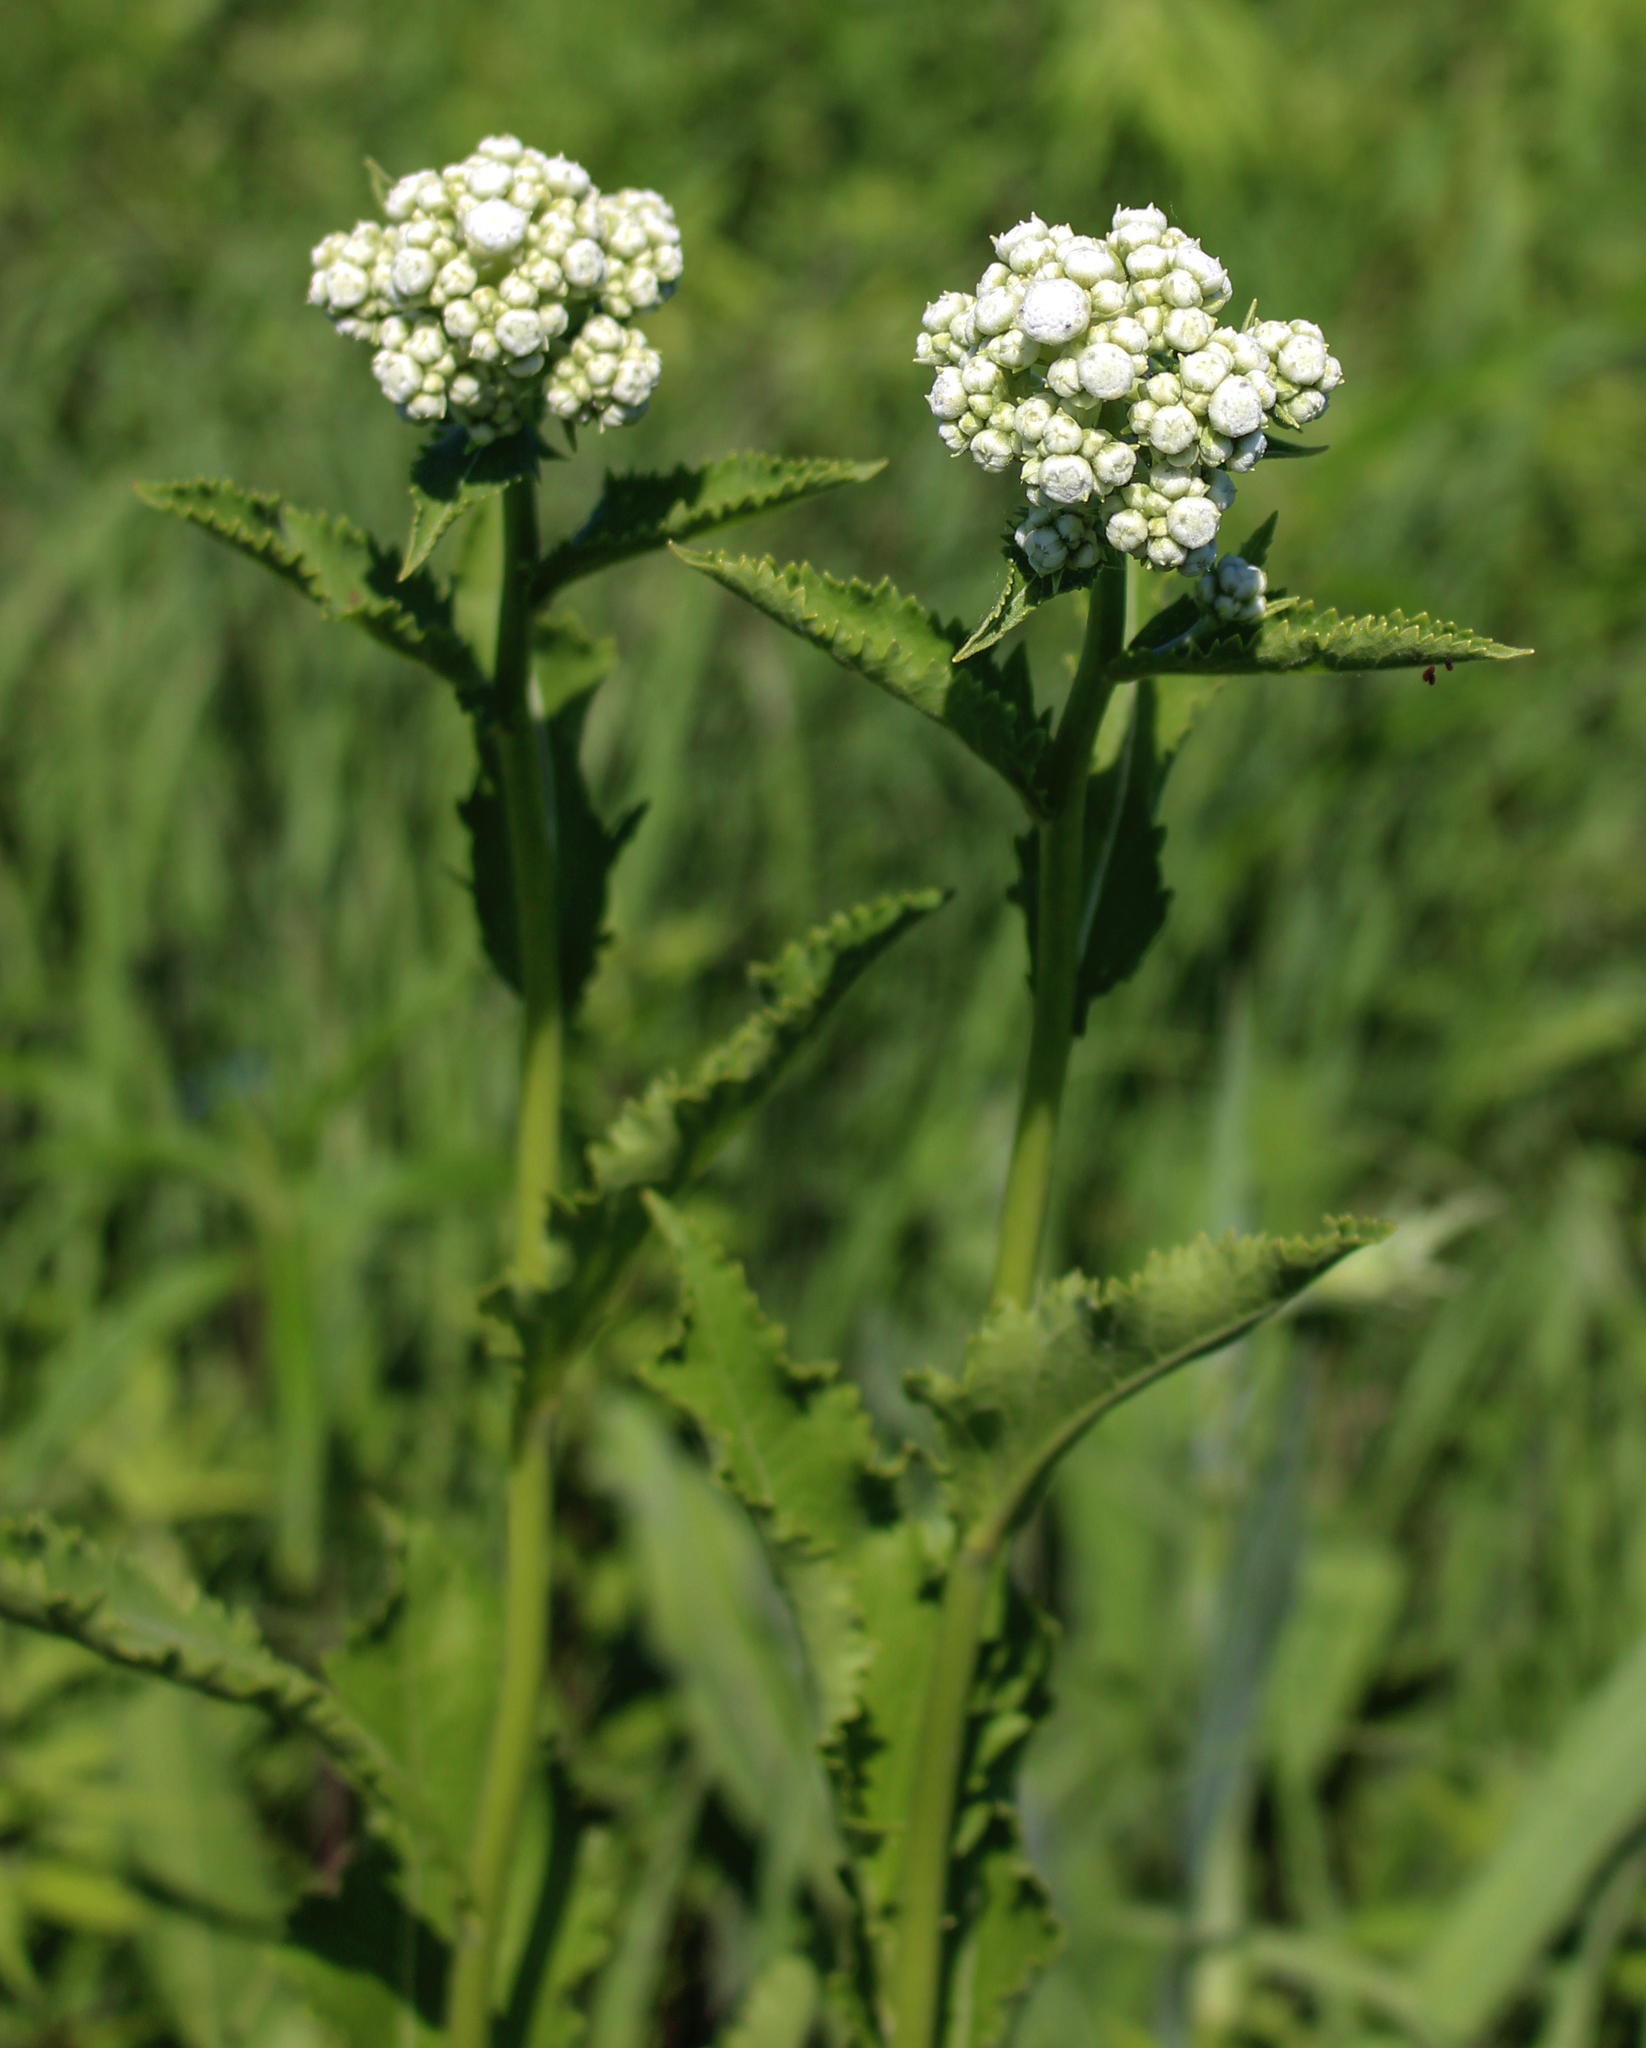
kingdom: Plantae
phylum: Tracheophyta
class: Magnoliopsida
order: Asterales
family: Asteraceae
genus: Parthenium
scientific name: Parthenium integrifolium
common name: American feverfew
